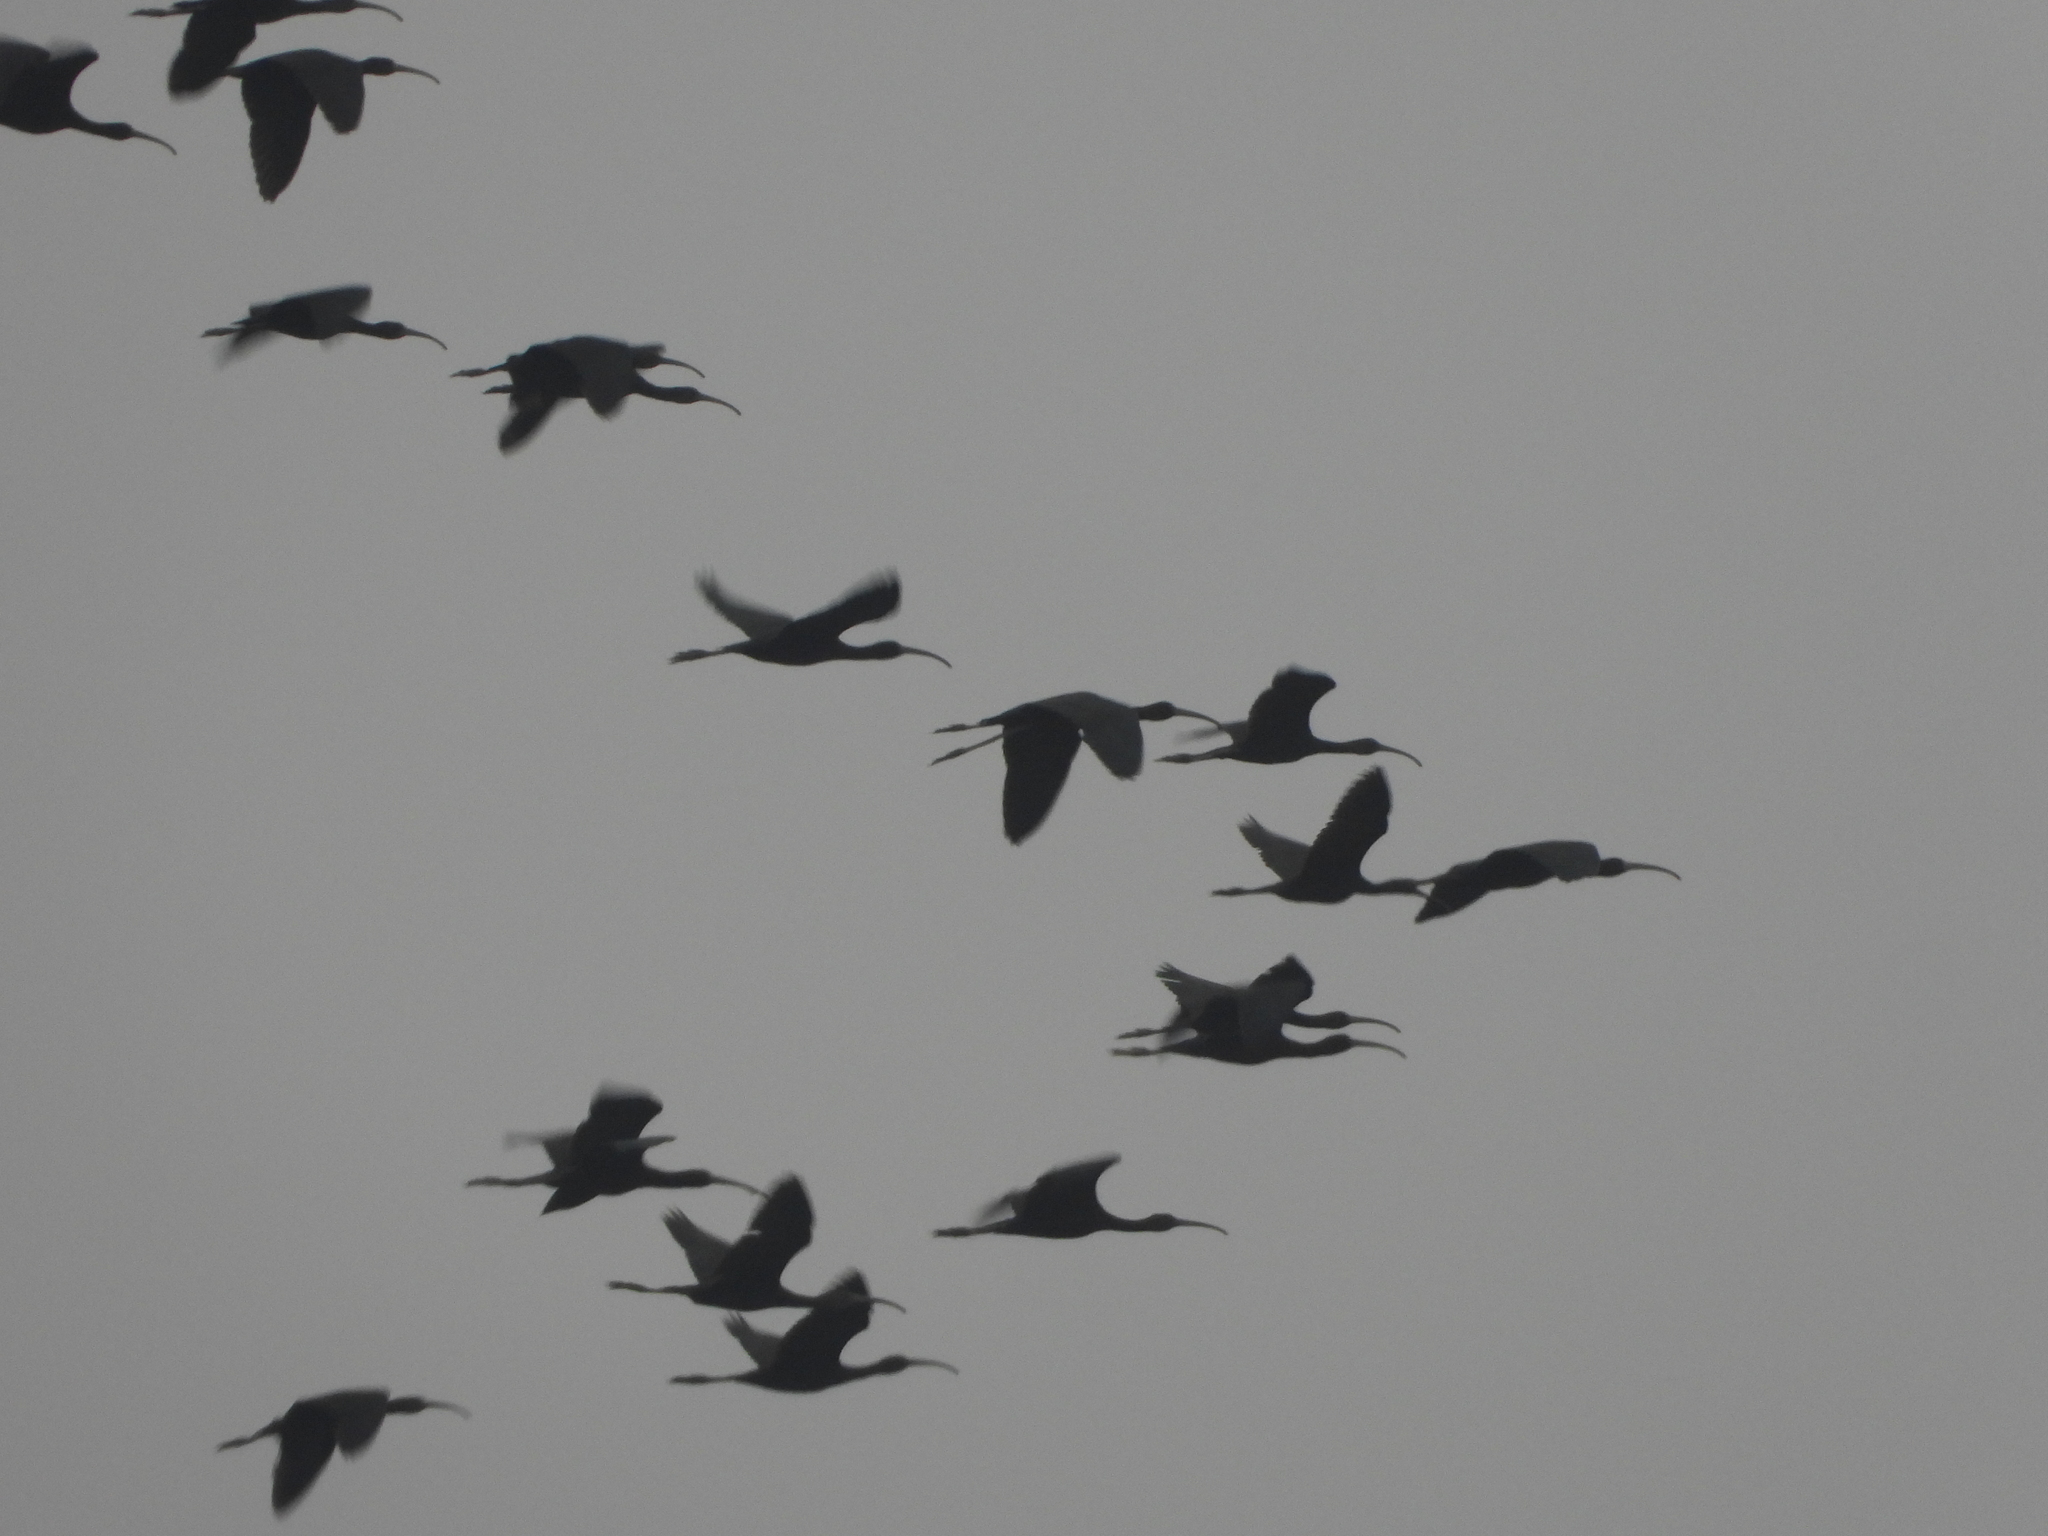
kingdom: Animalia
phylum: Chordata
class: Aves
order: Pelecaniformes
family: Threskiornithidae
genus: Plegadis
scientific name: Plegadis falcinellus
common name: Glossy ibis
